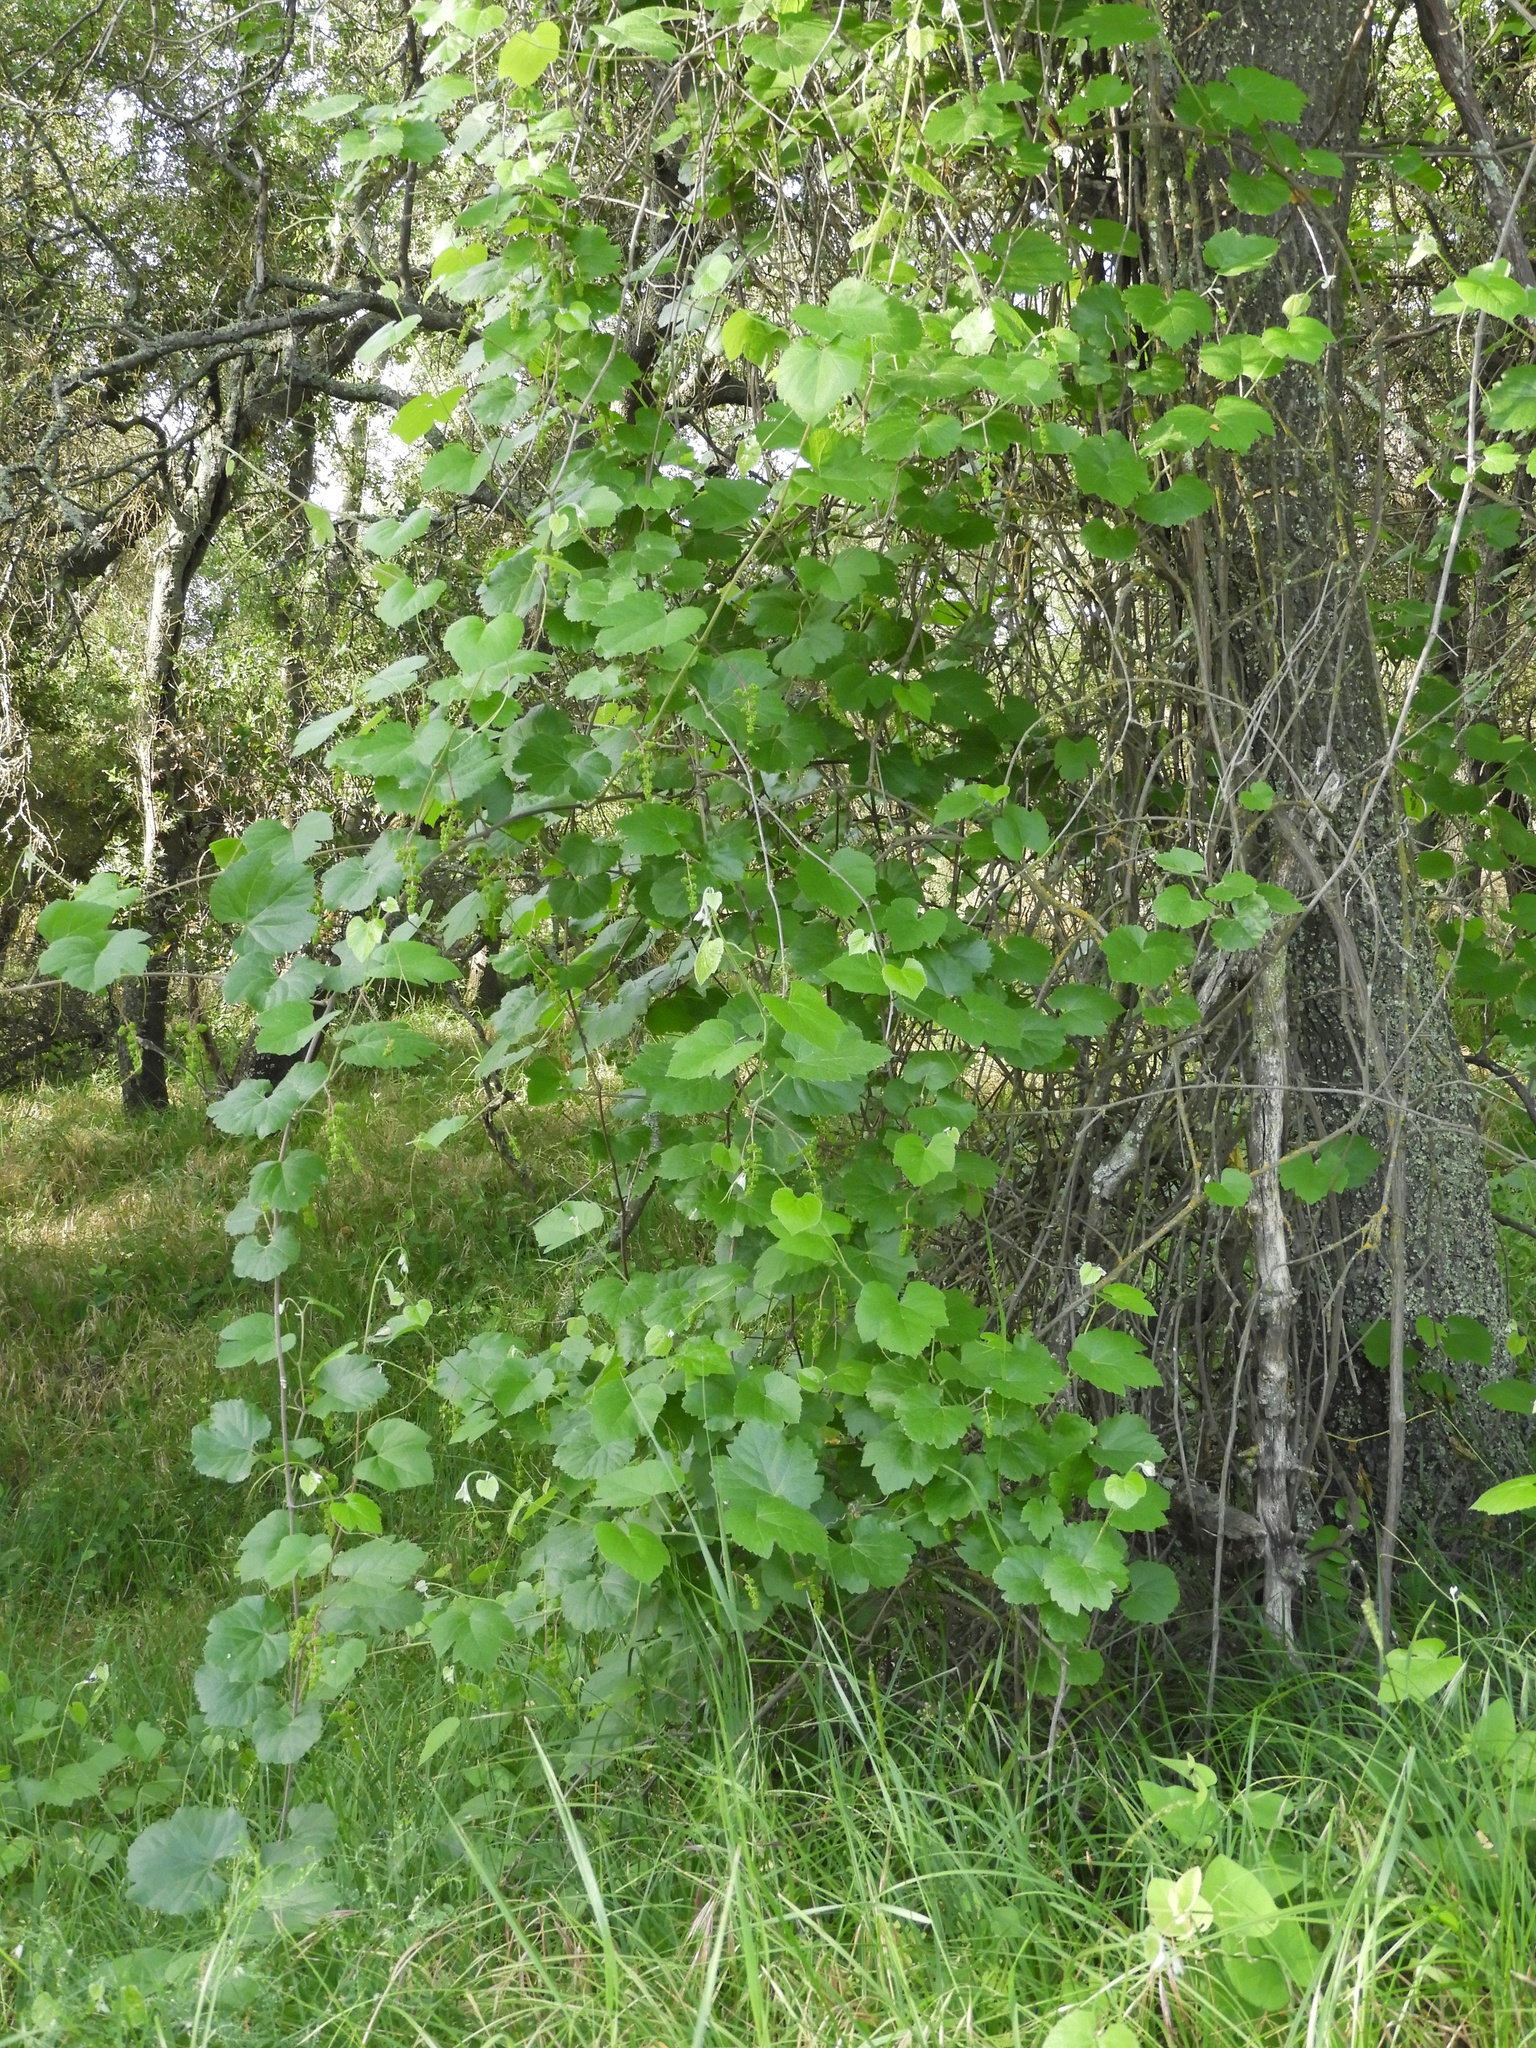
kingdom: Plantae
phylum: Tracheophyta
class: Magnoliopsida
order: Vitales
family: Vitaceae
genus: Vitis
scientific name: Vitis californica
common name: California wild grape
